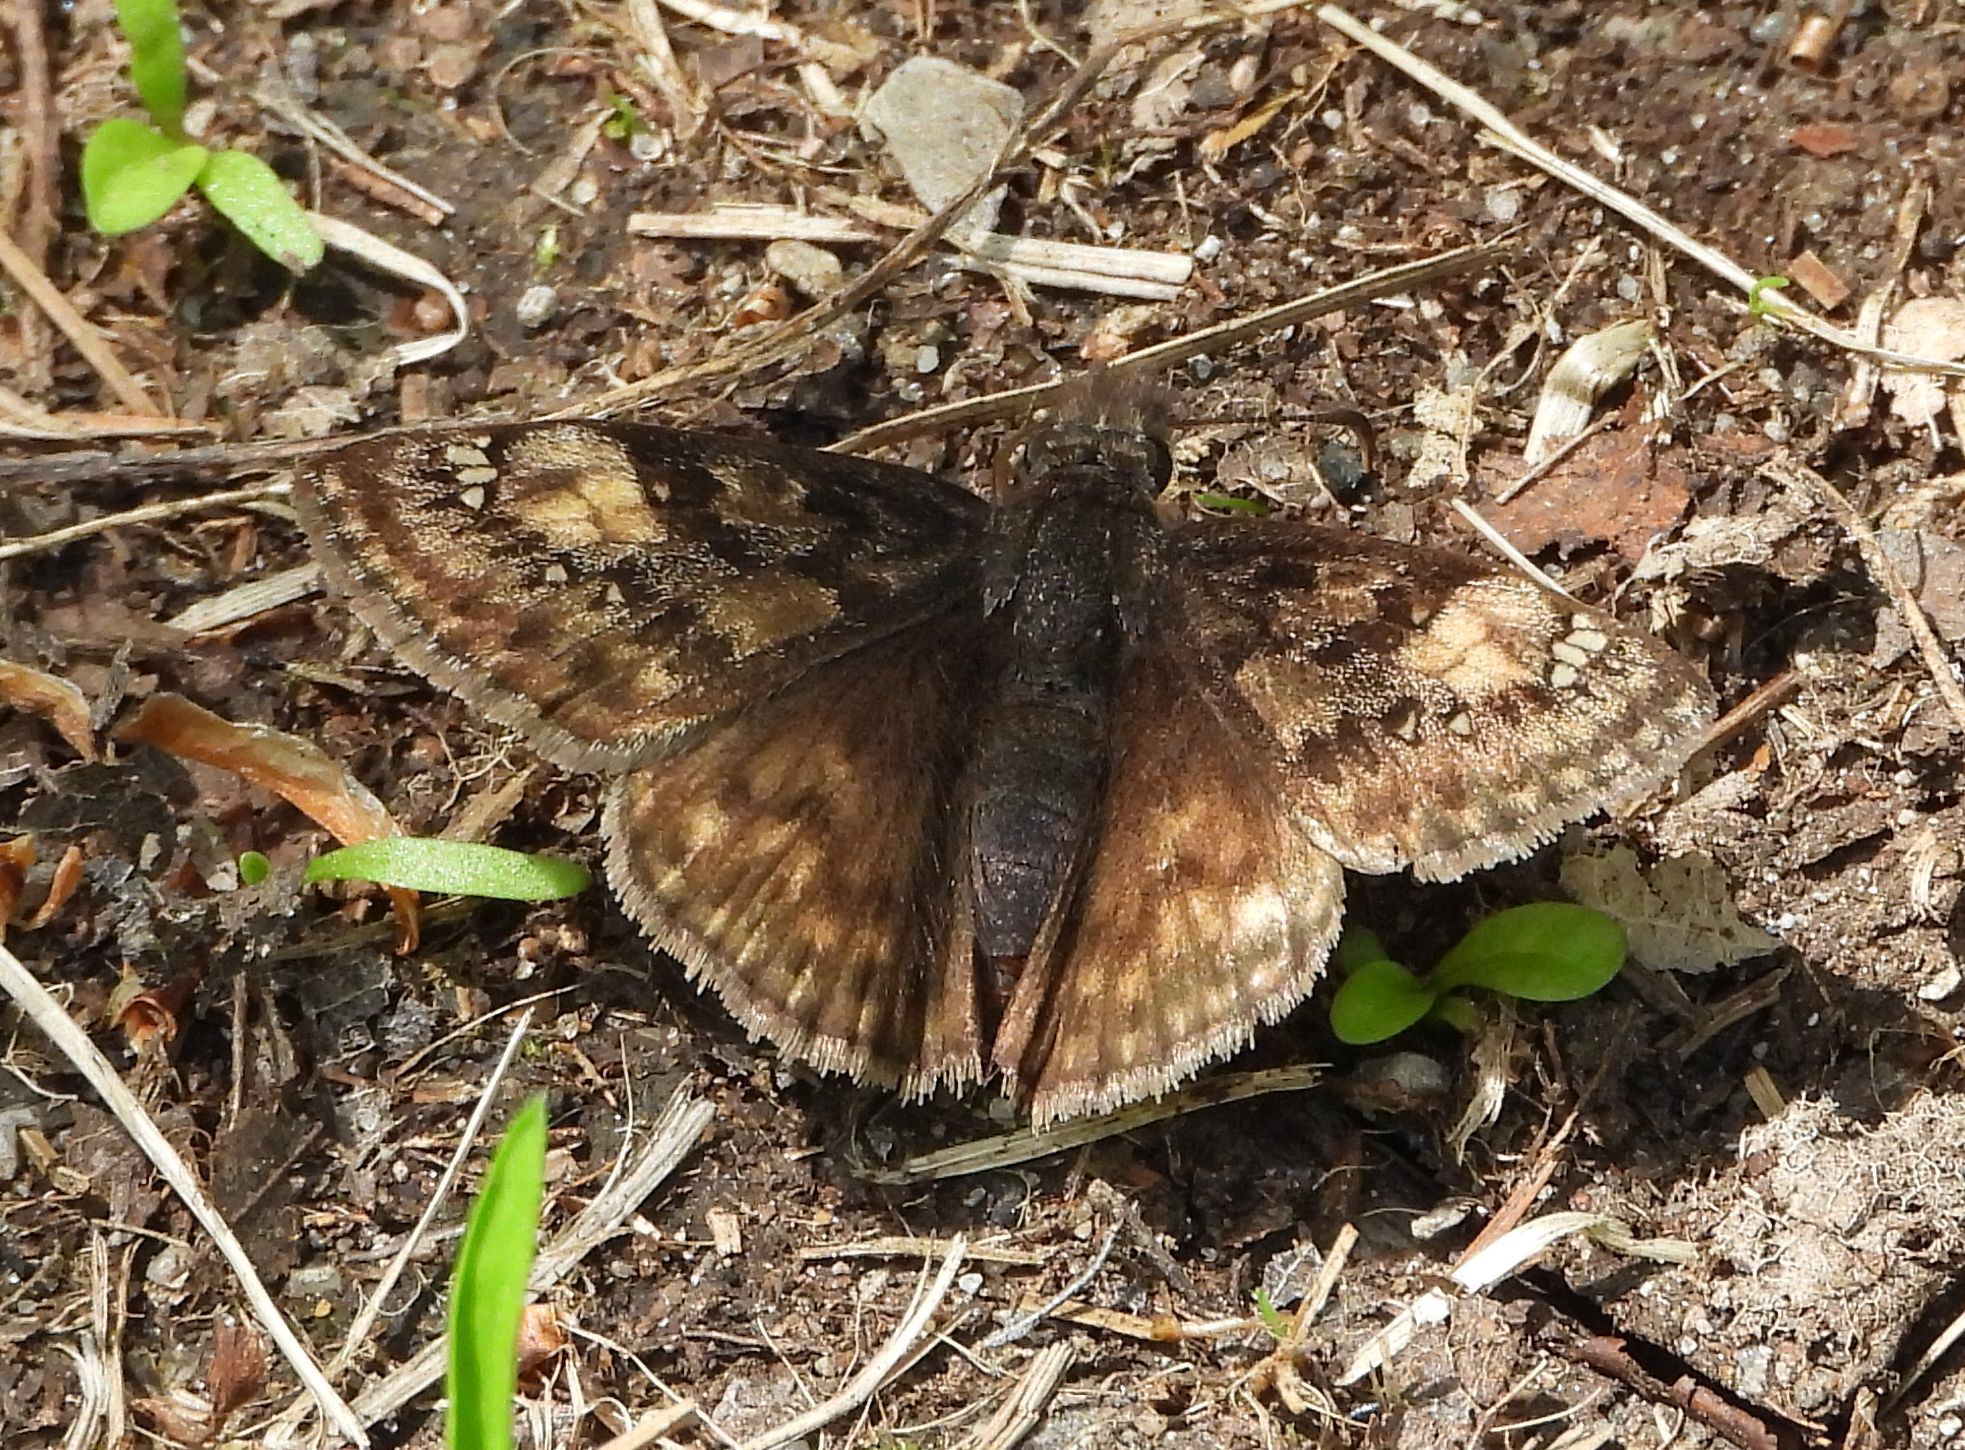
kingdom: Animalia
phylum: Arthropoda
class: Insecta
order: Lepidoptera
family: Hesperiidae
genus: Erynnis
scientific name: Erynnis juvenalis
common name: Juvenal's duskywing
